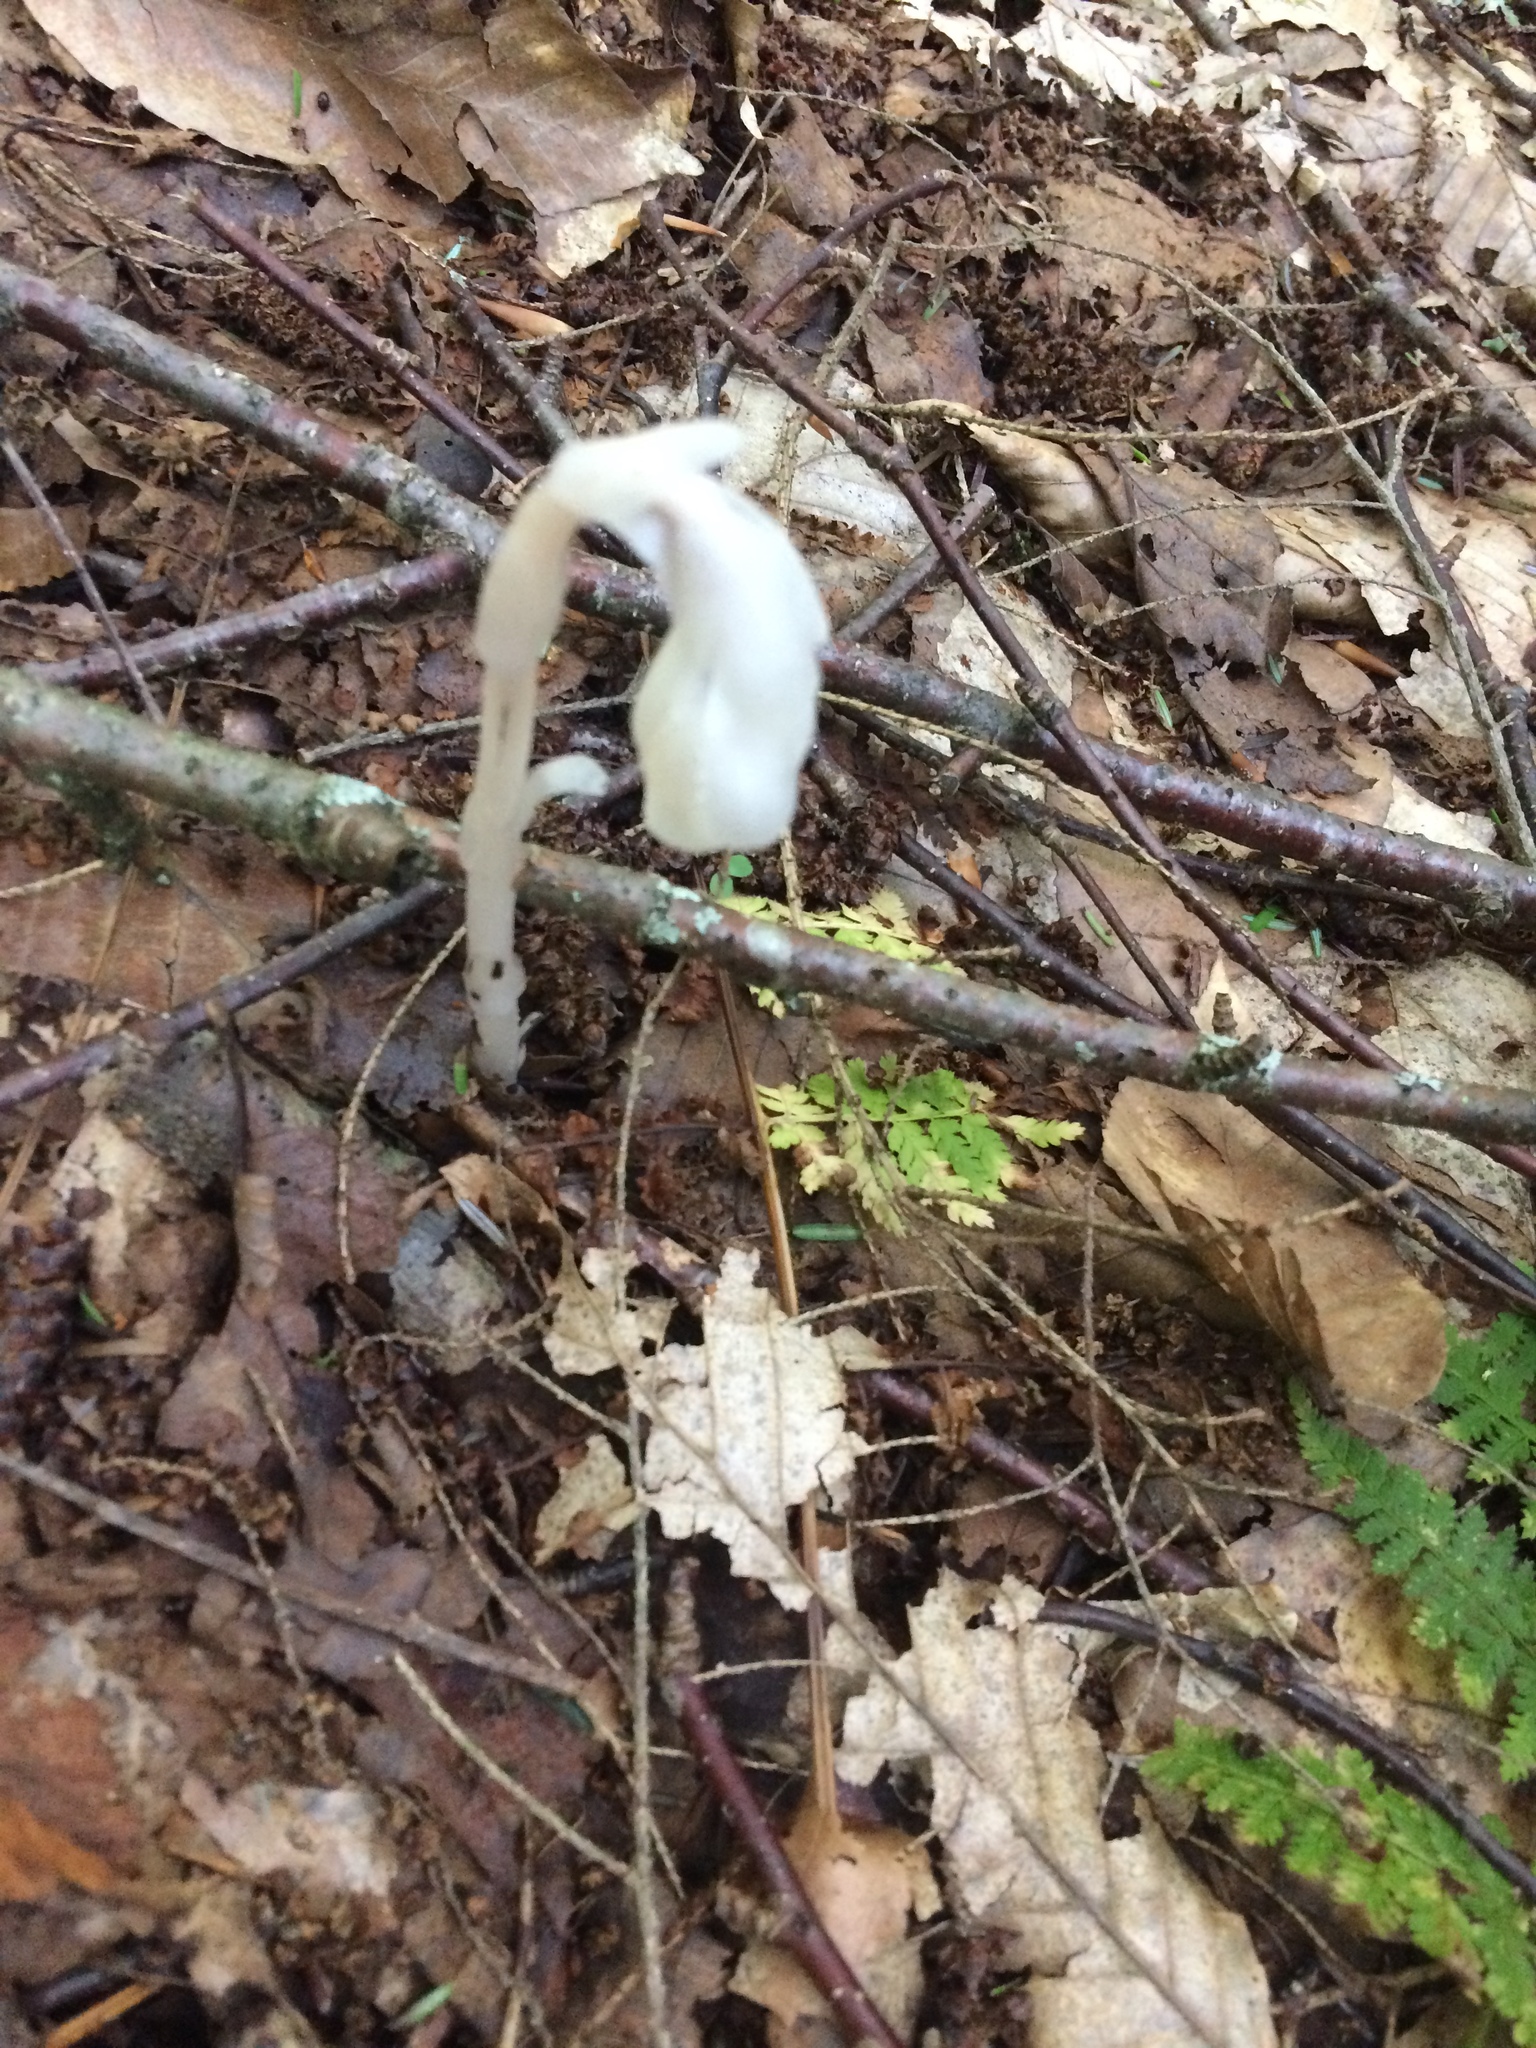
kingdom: Plantae
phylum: Tracheophyta
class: Magnoliopsida
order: Ericales
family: Ericaceae
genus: Monotropa
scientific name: Monotropa uniflora
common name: Convulsion root
